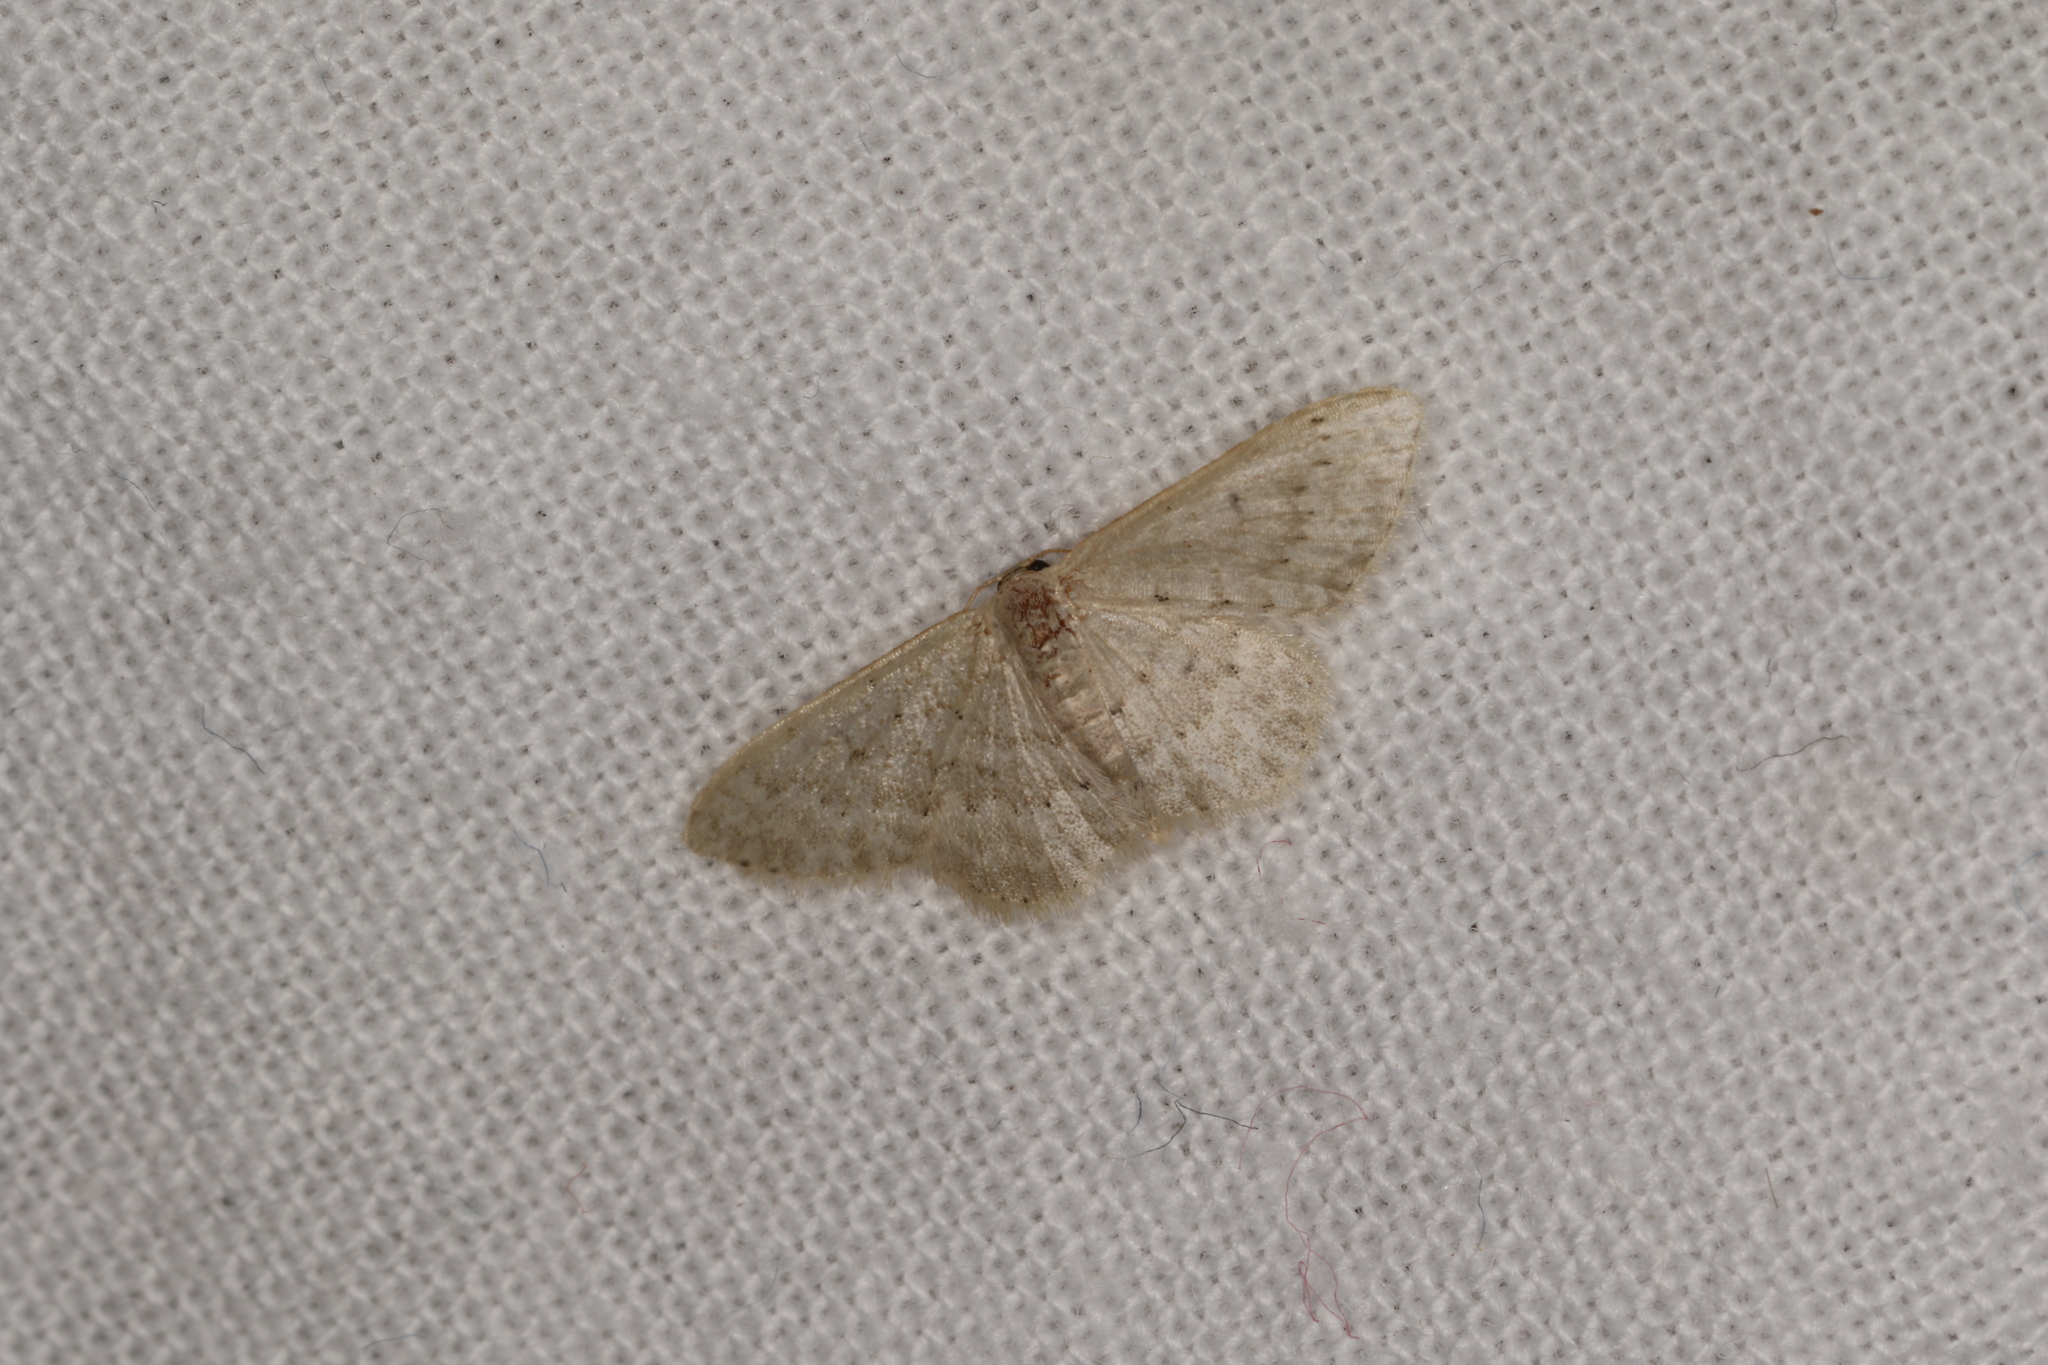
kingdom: Animalia
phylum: Arthropoda
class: Insecta
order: Lepidoptera
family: Geometridae
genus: Idaea
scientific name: Idaea lucida
